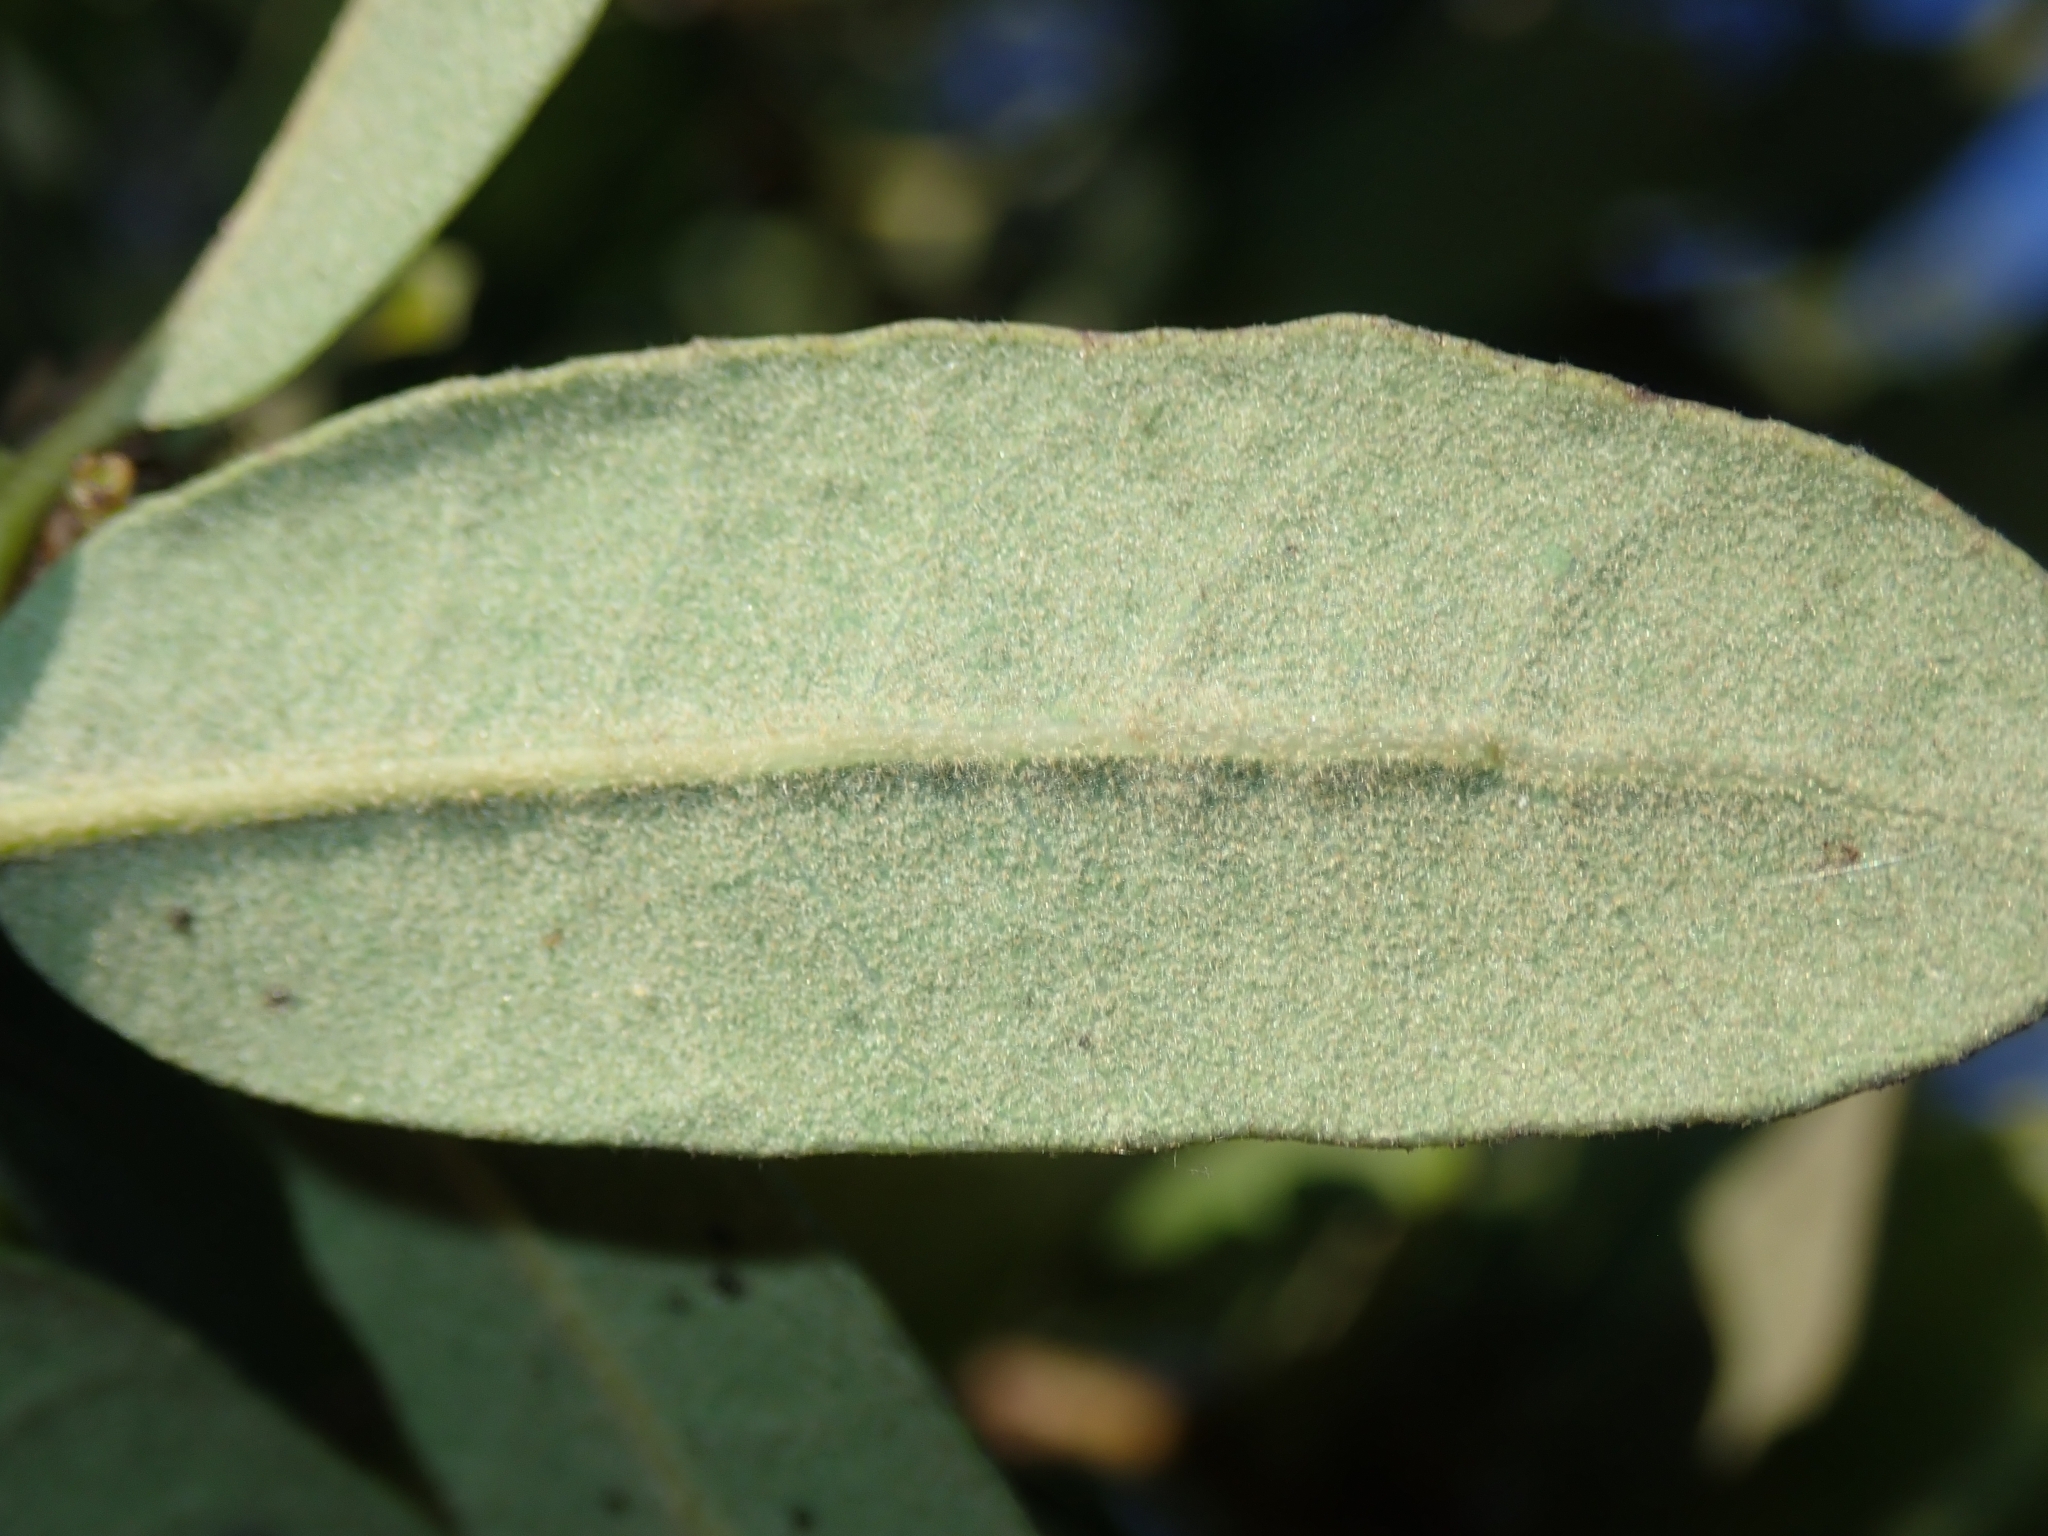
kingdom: Plantae
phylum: Tracheophyta
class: Magnoliopsida
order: Fagales
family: Fagaceae
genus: Quercus
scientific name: Quercus engelmannii
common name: Engelmann oak
